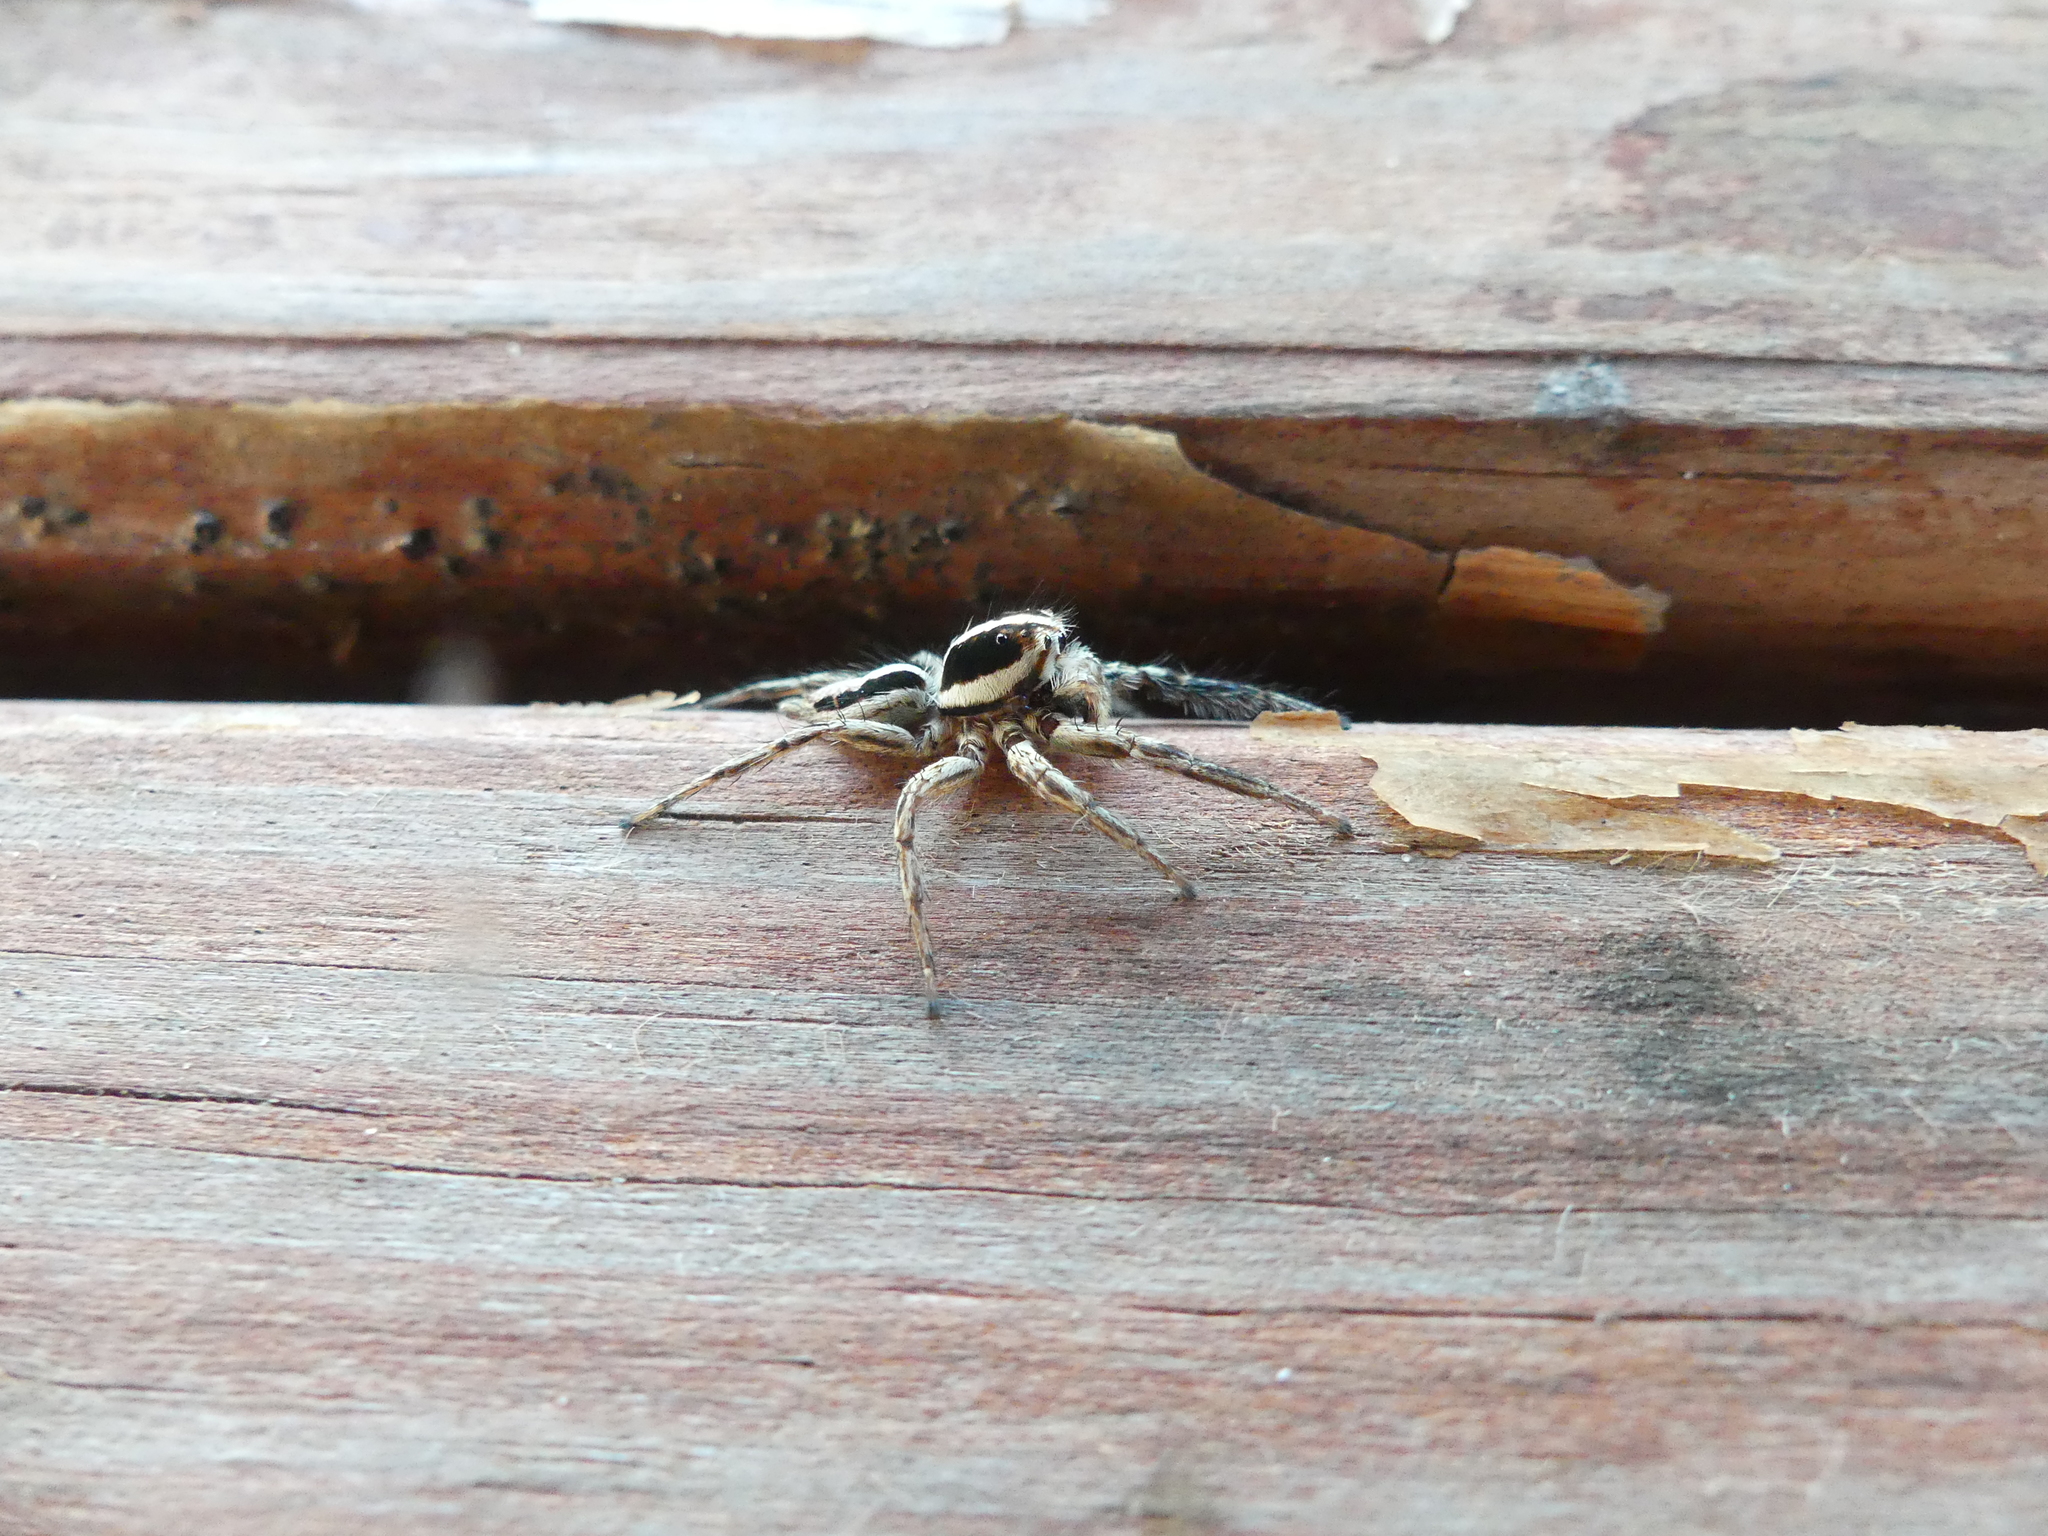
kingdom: Animalia
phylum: Arthropoda
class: Arachnida
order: Araneae
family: Salticidae
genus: Plexippus
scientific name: Plexippus paykulli
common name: Pantropical jumper
